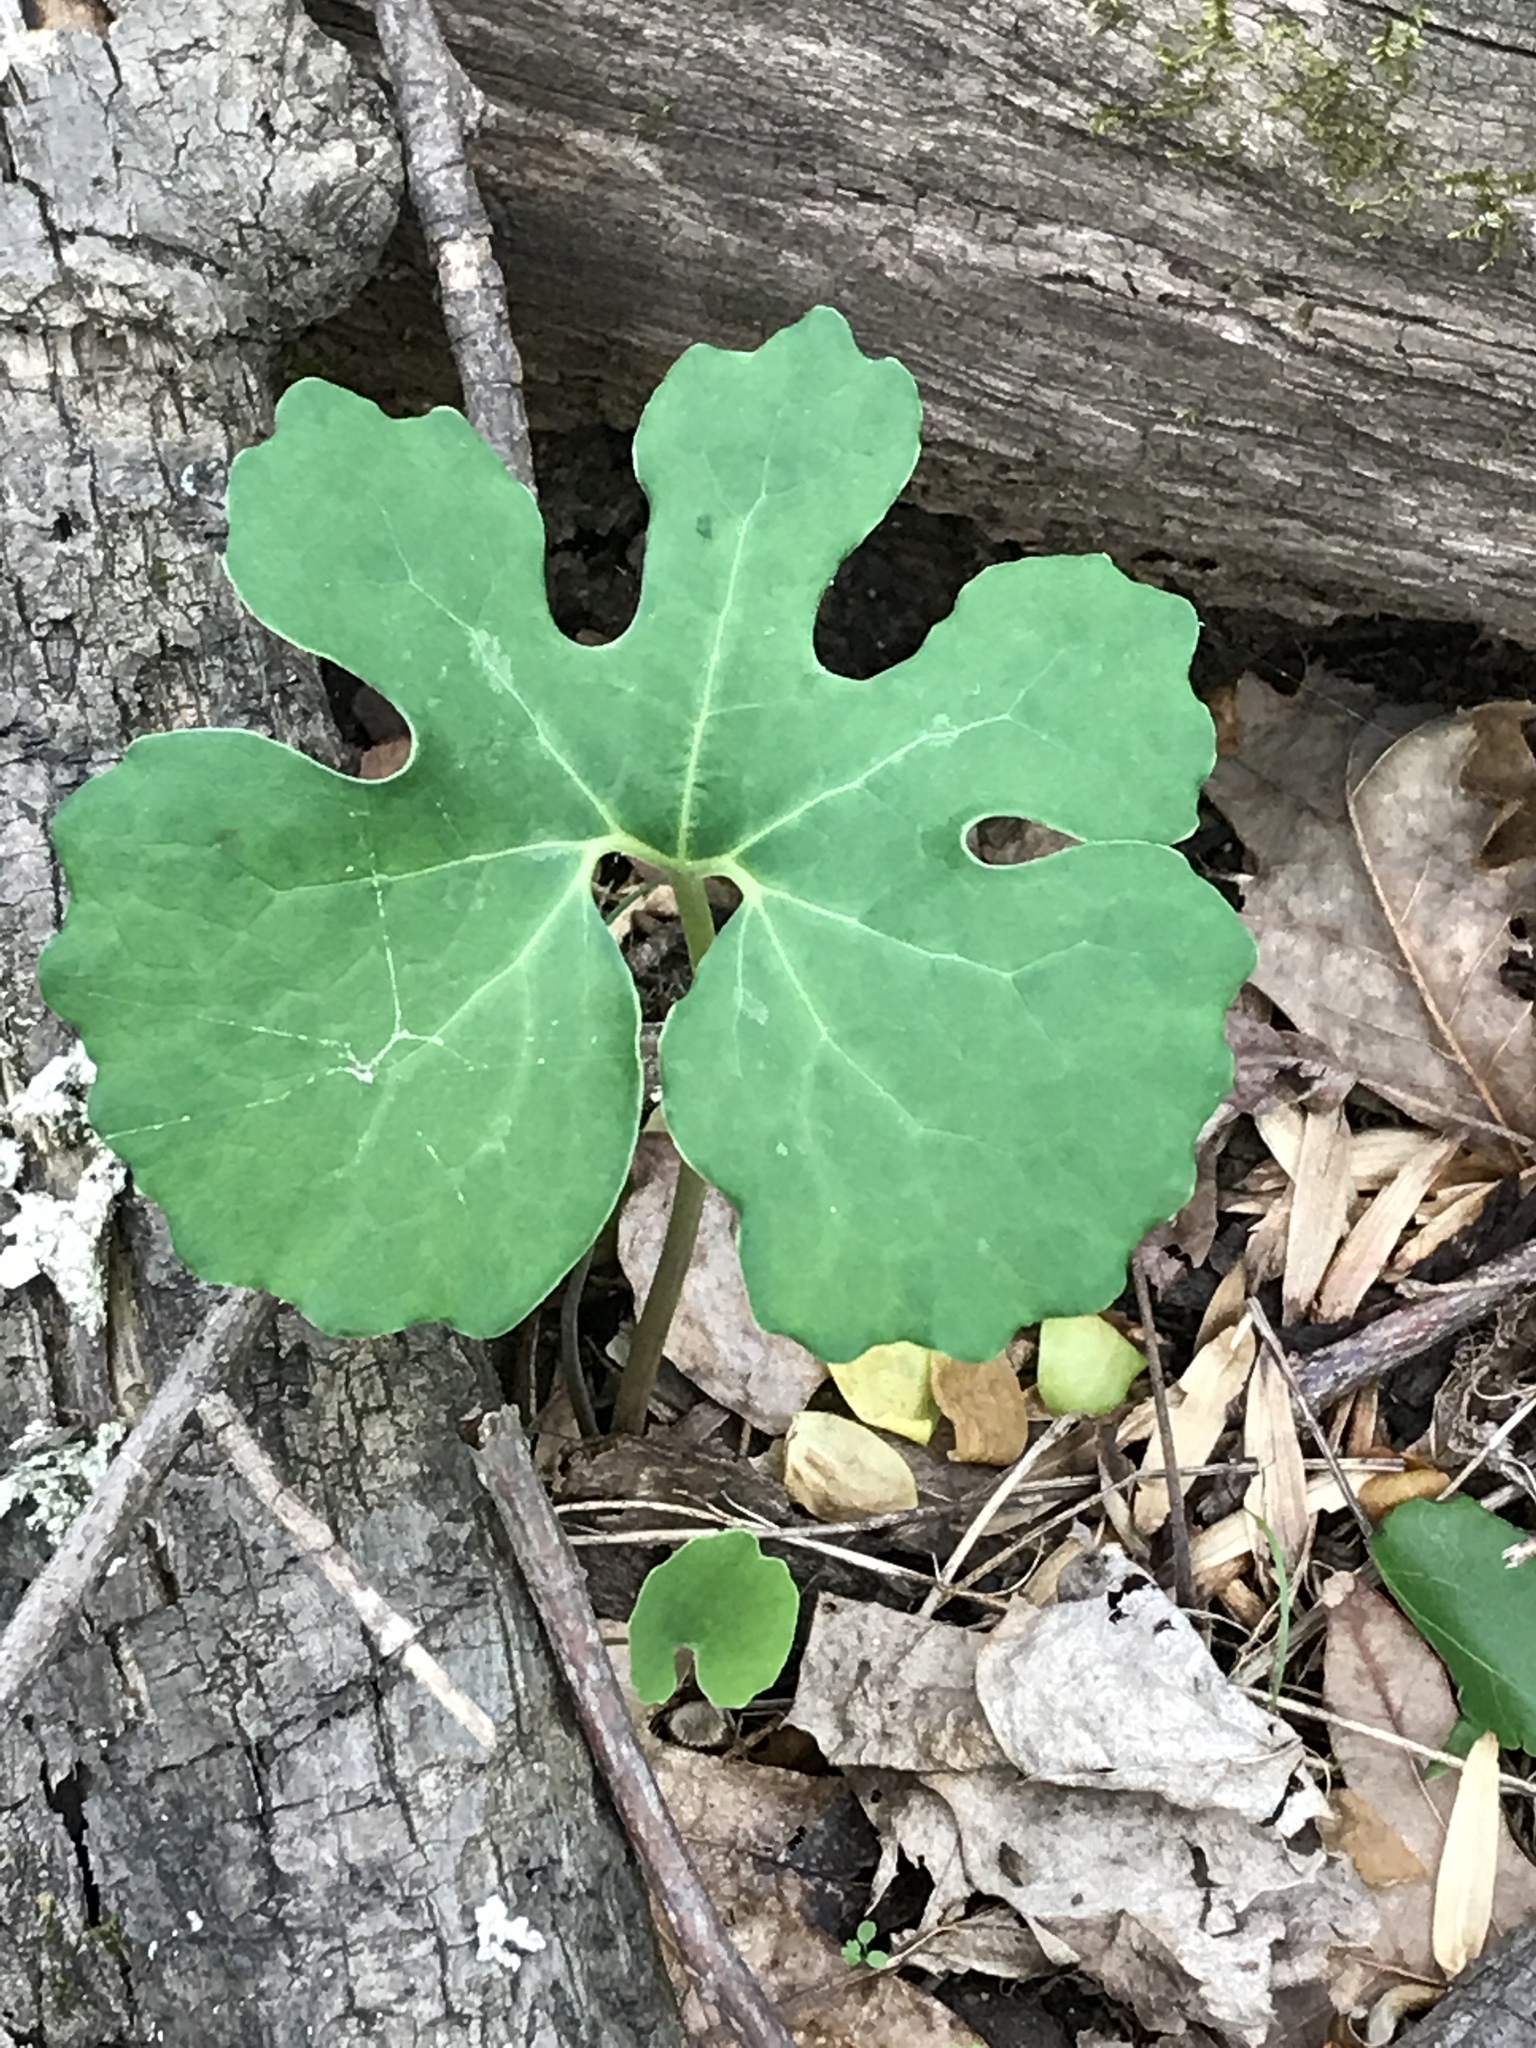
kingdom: Plantae
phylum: Tracheophyta
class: Magnoliopsida
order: Ranunculales
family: Papaveraceae
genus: Sanguinaria
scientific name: Sanguinaria canadensis
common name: Bloodroot
